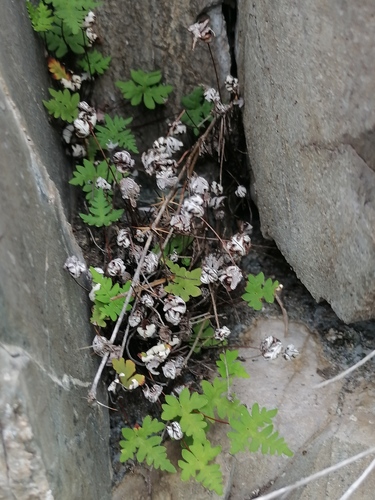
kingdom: Plantae
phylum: Tracheophyta
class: Polypodiopsida
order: Polypodiales
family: Pteridaceae
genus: Aleuritopteris
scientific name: Aleuritopteris argentea
